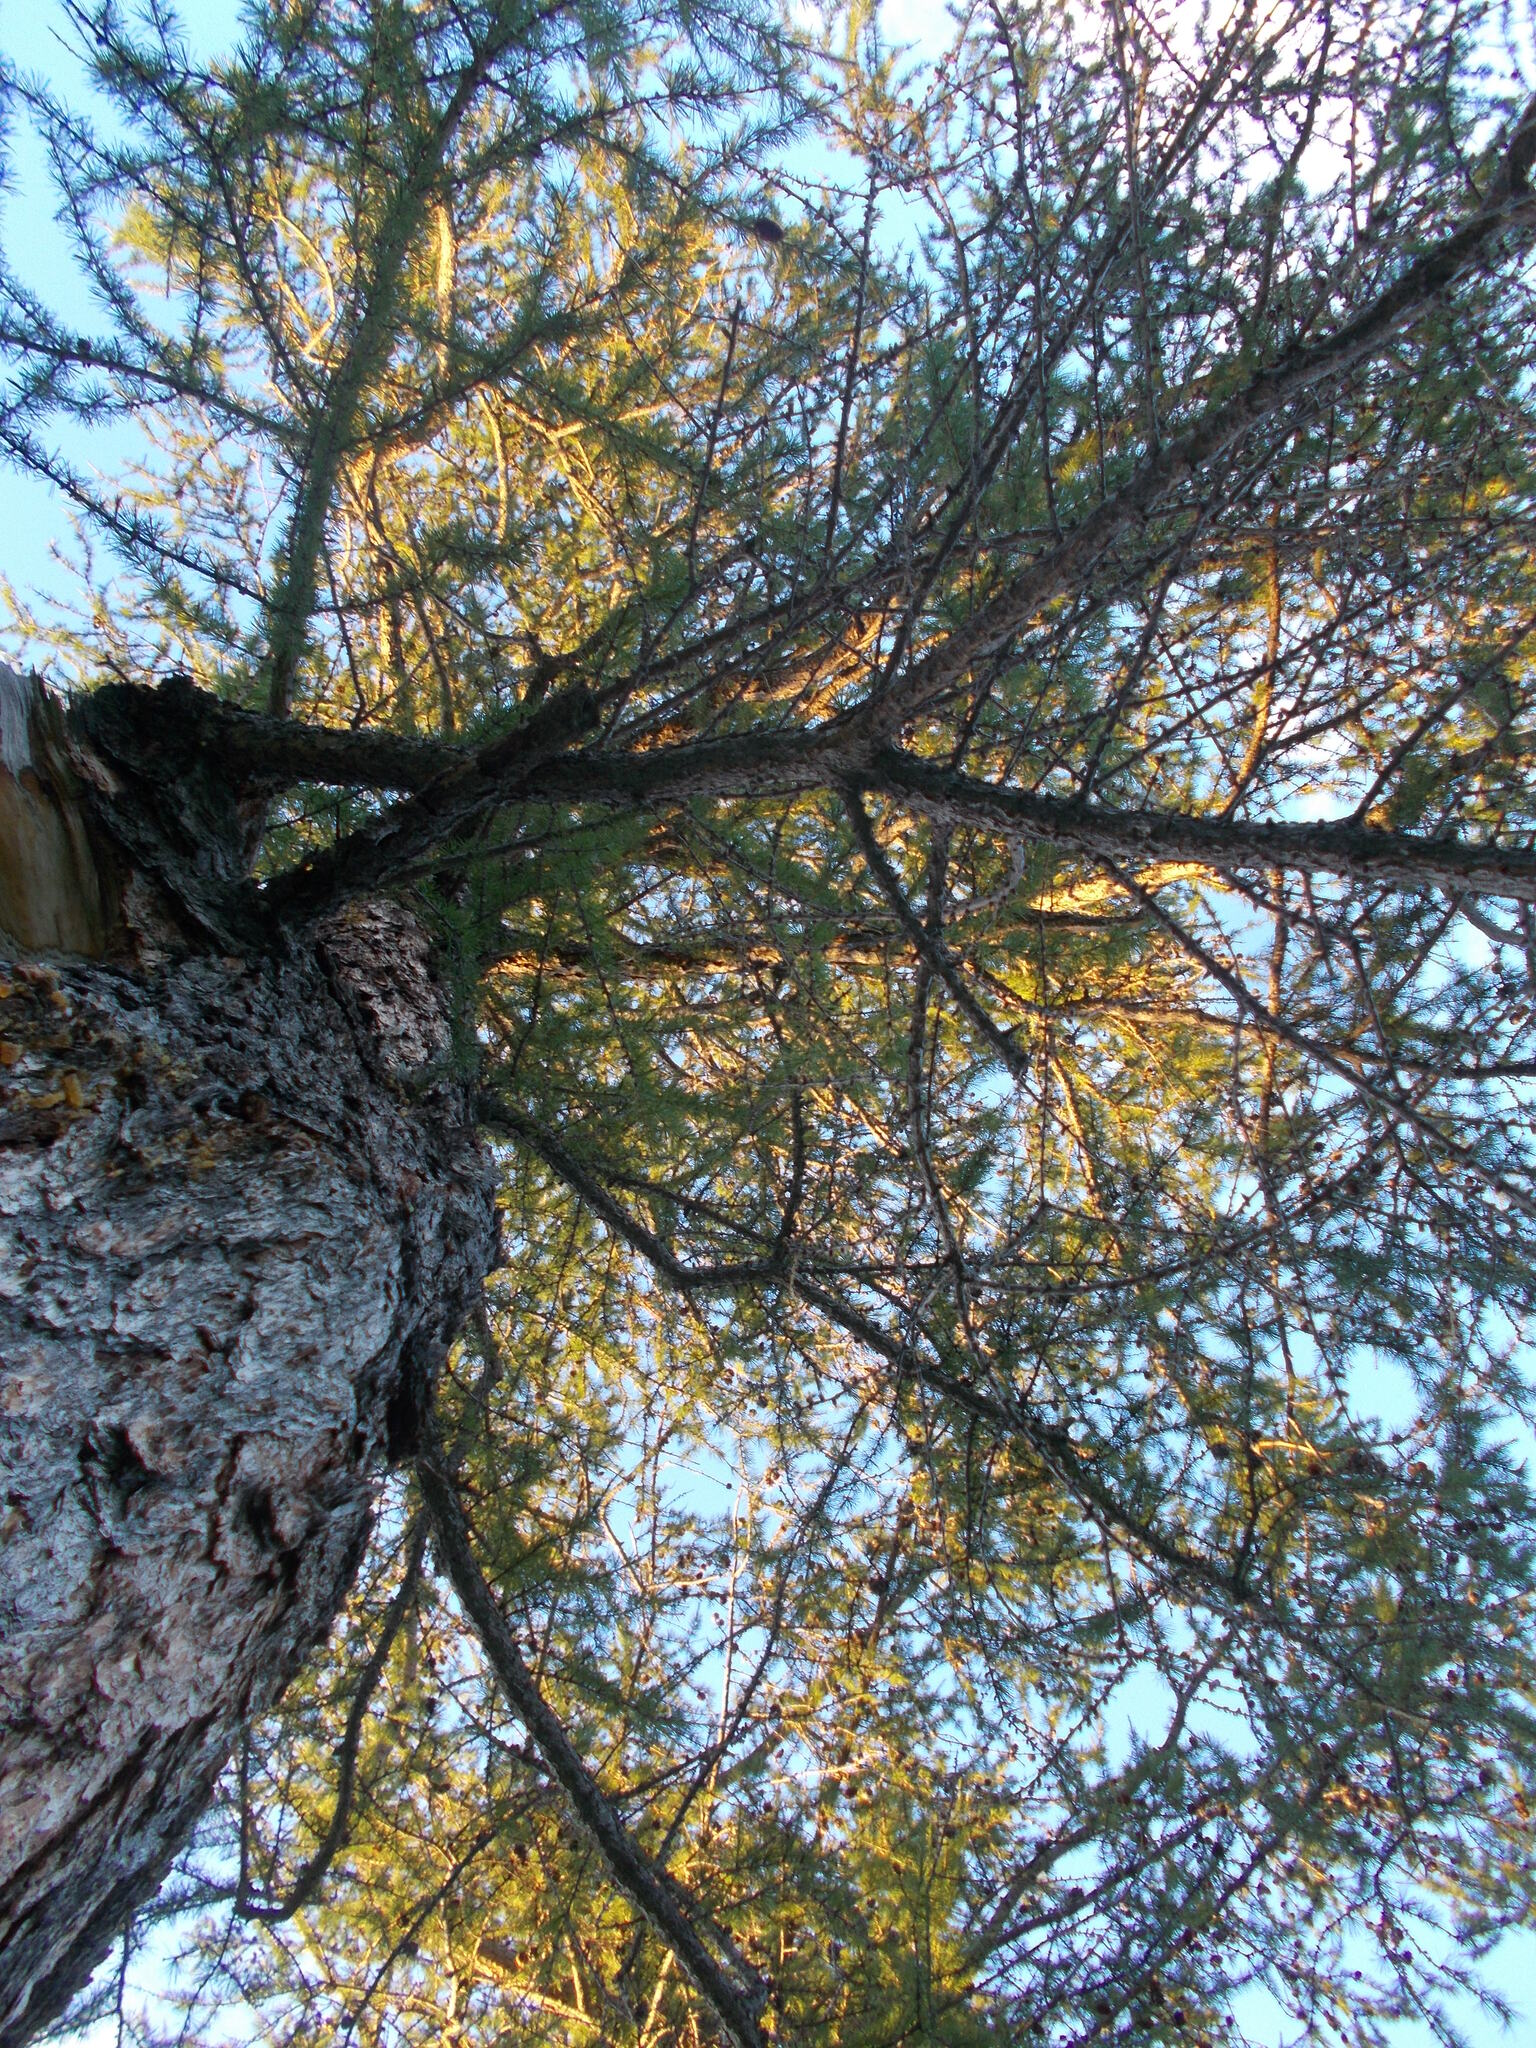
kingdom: Plantae
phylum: Tracheophyta
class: Pinopsida
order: Pinales
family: Pinaceae
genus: Larix
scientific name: Larix sibirica
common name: Siberian larch
